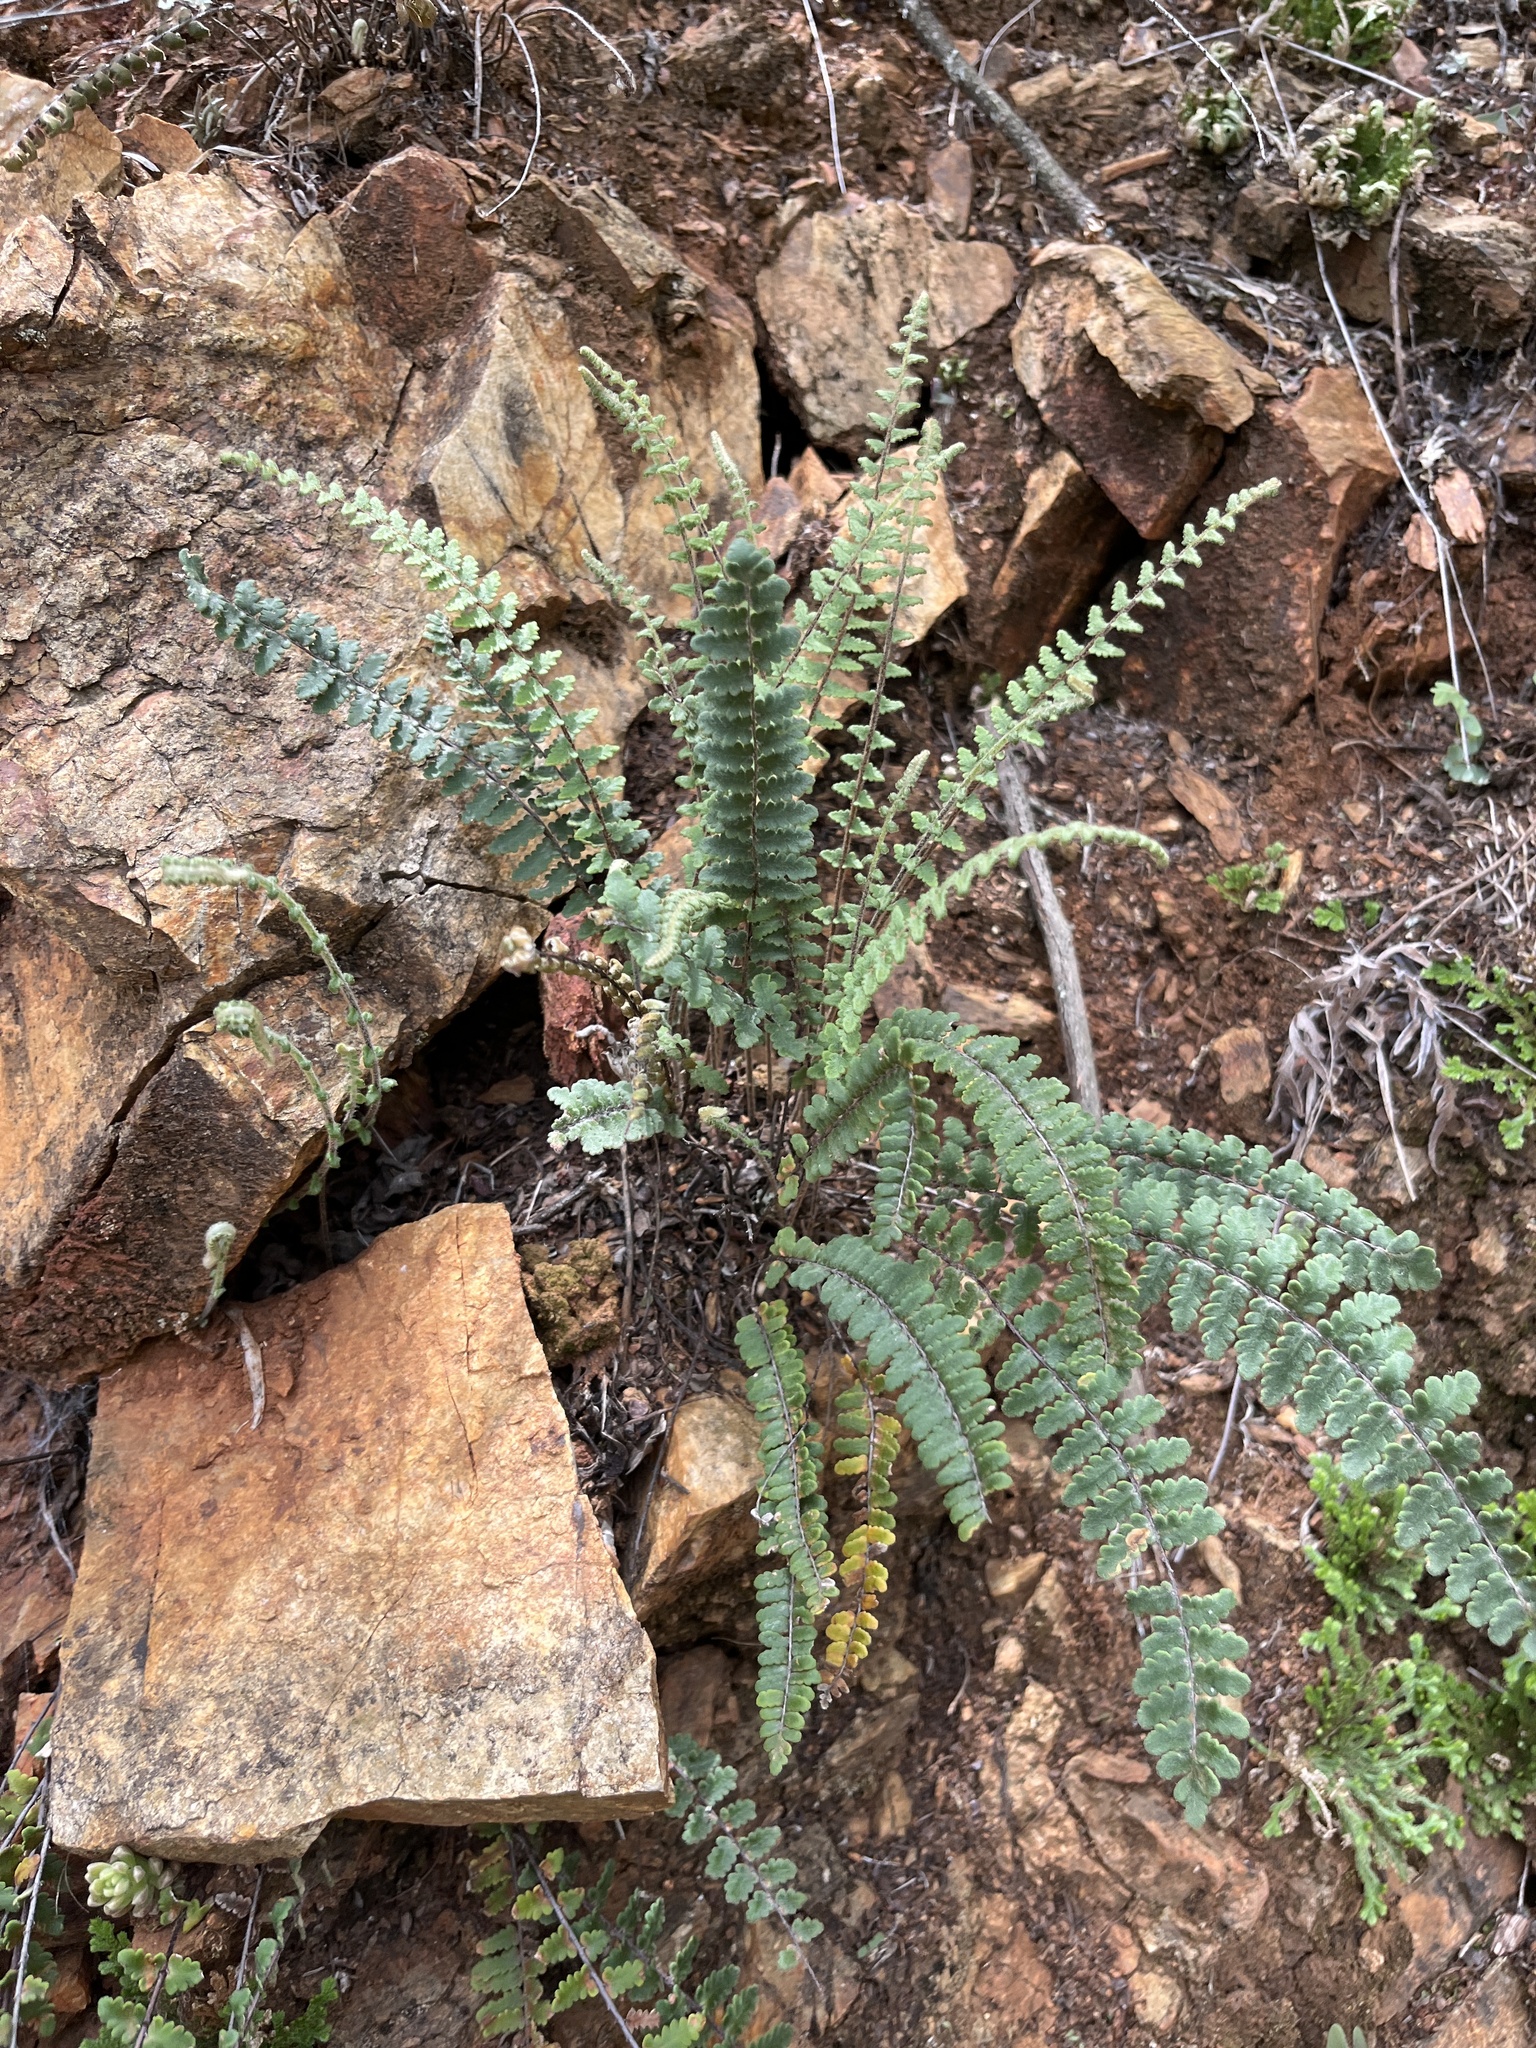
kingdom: Plantae
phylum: Tracheophyta
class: Polypodiopsida
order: Polypodiales
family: Pteridaceae
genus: Myriopteris
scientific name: Myriopteris aurea
